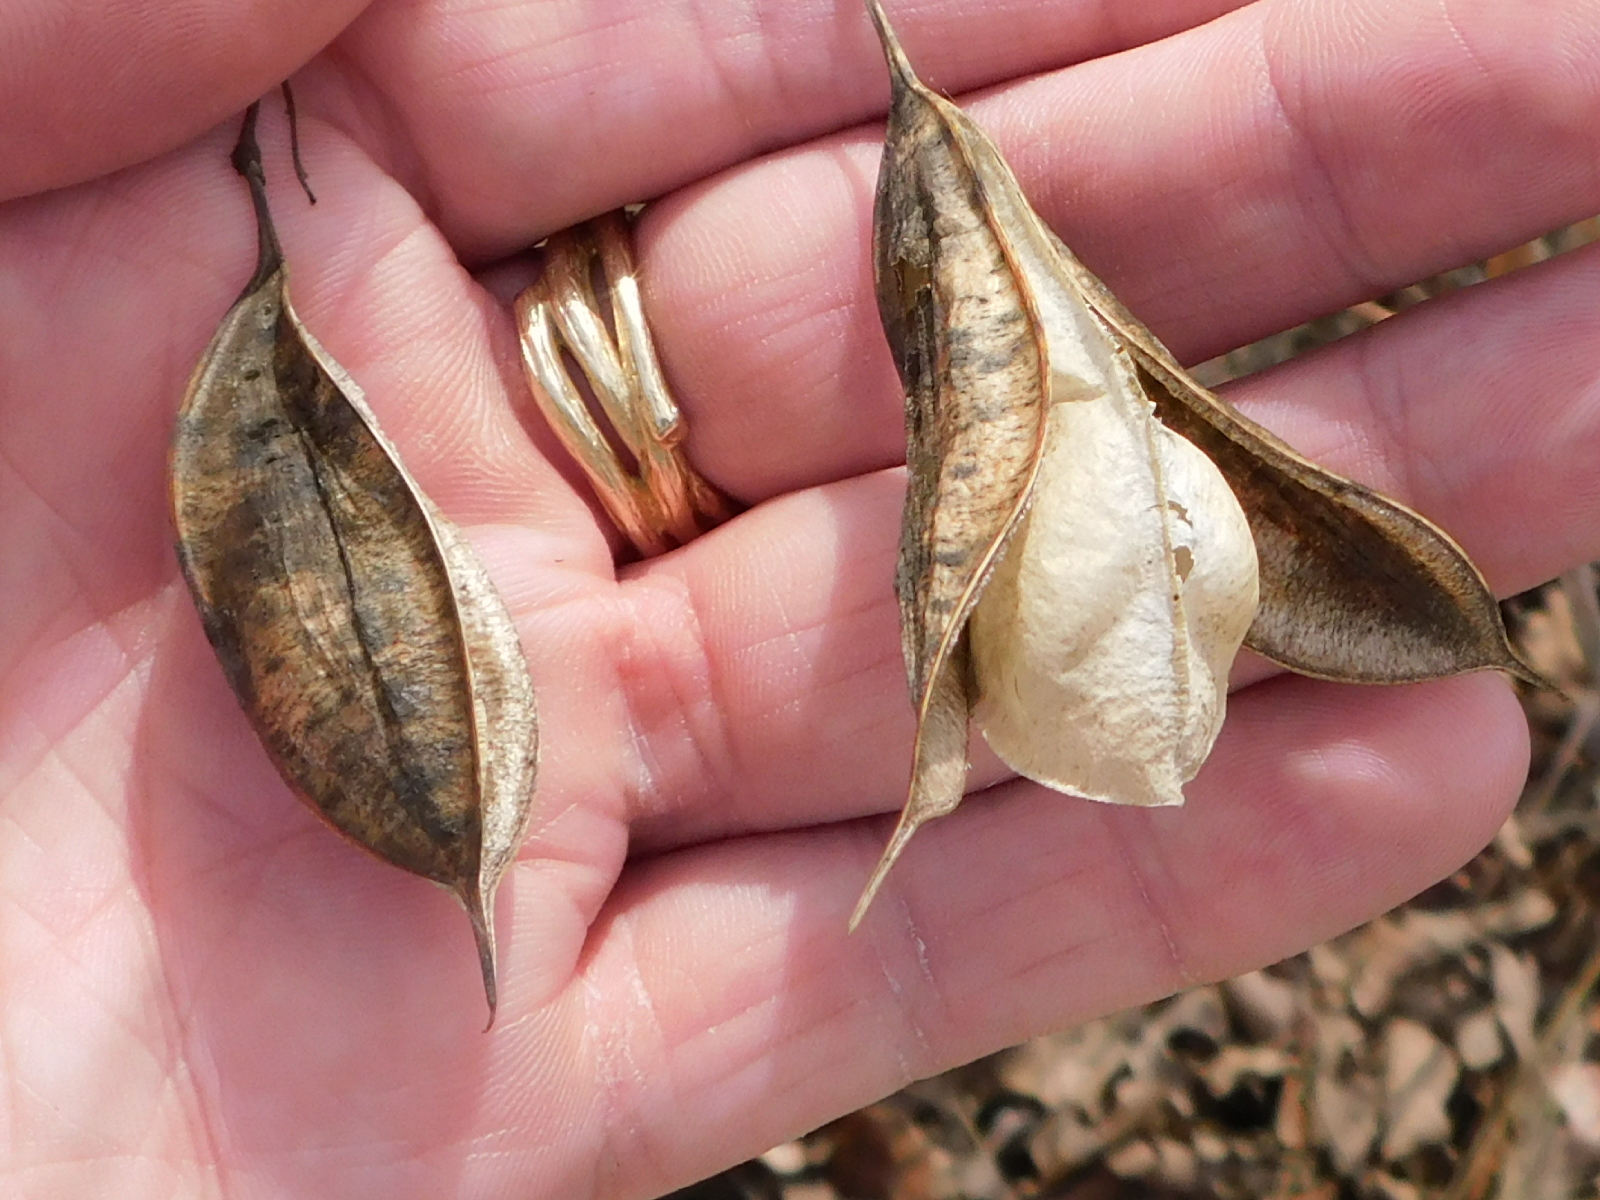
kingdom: Plantae
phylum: Tracheophyta
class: Magnoliopsida
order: Fabales
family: Fabaceae
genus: Sesbania
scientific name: Sesbania vesicaria
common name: Bagpod
